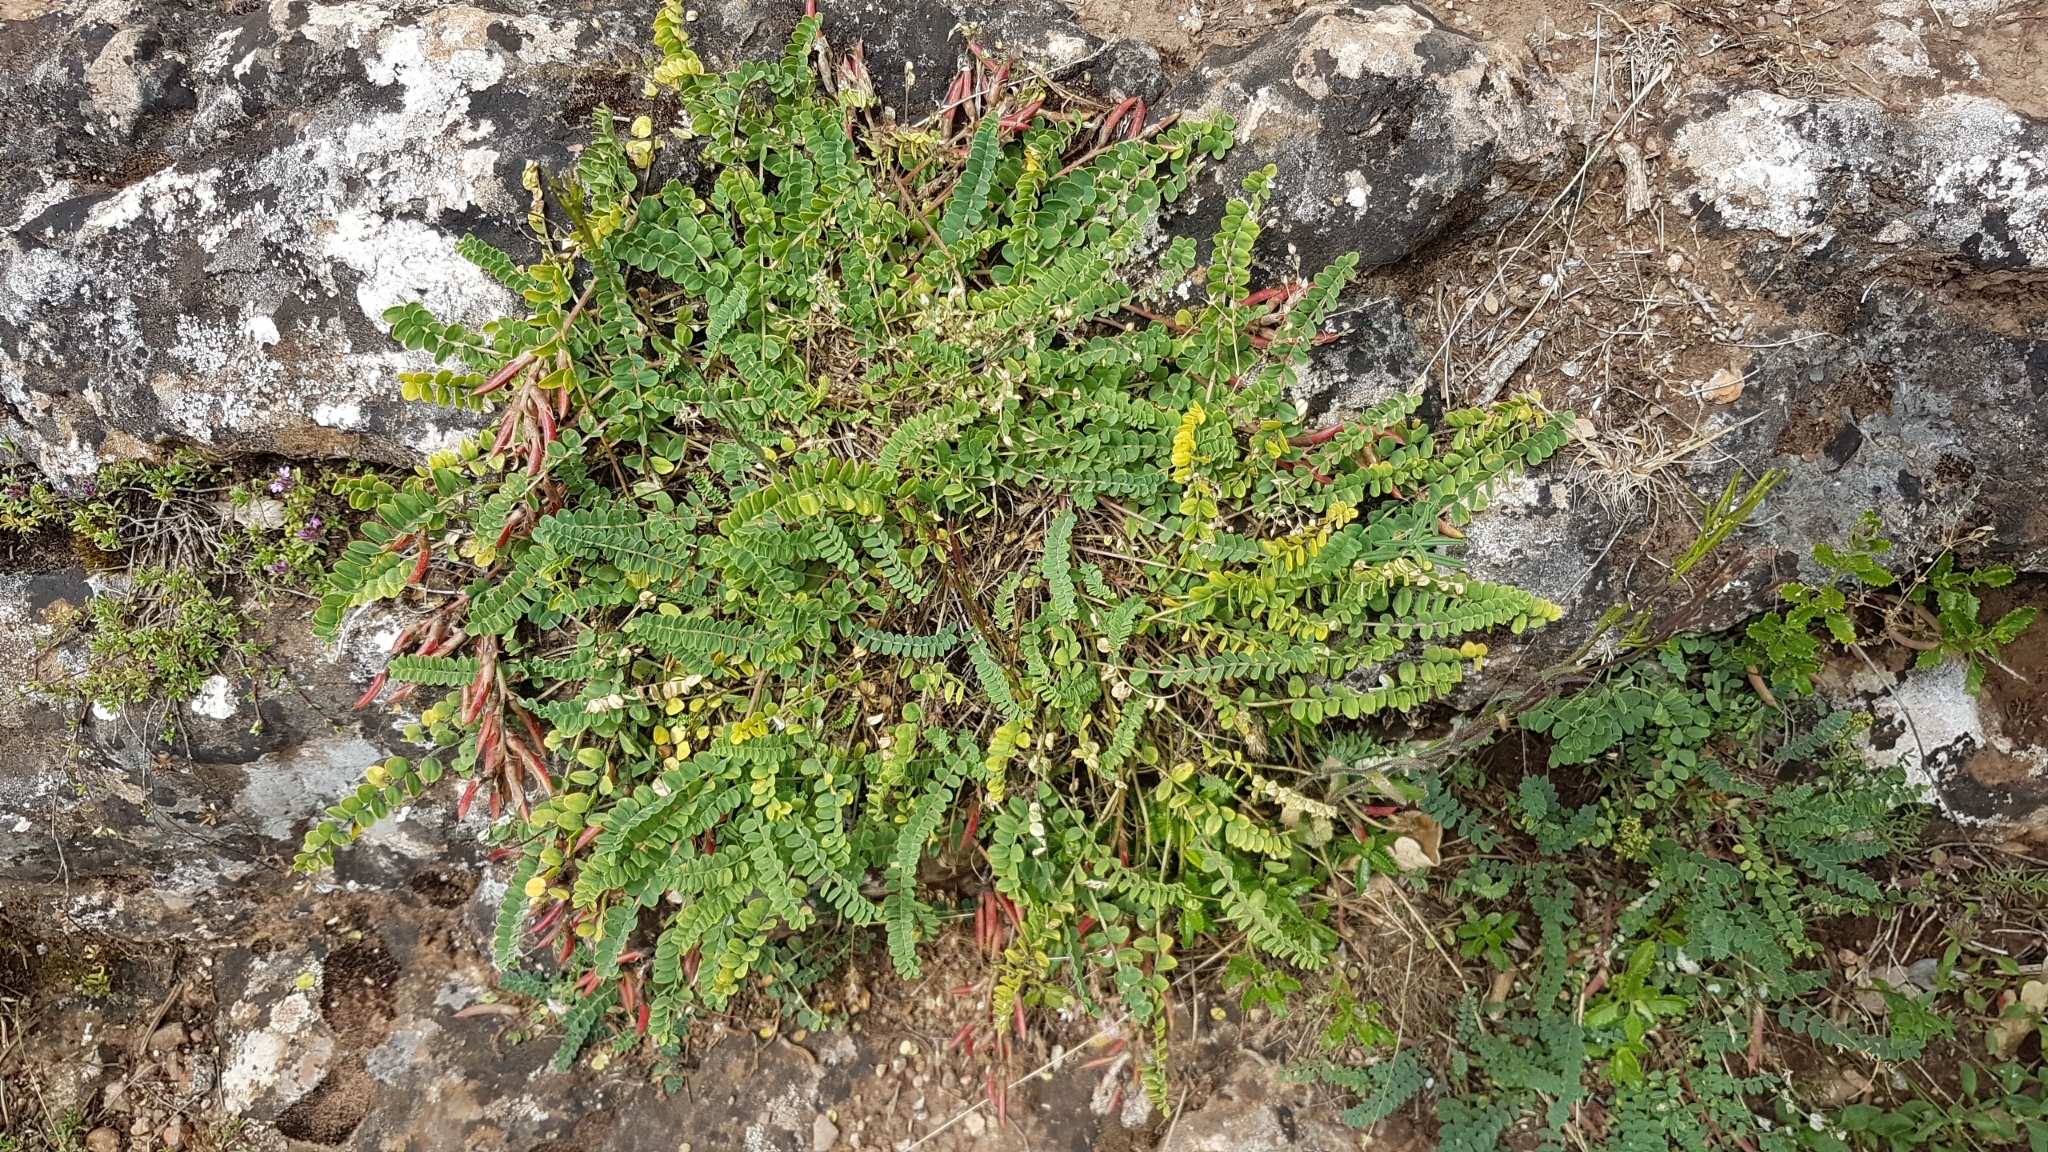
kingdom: Plantae
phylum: Tracheophyta
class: Magnoliopsida
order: Fabales
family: Fabaceae
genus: Astragalus
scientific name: Astragalus monspessulanus
